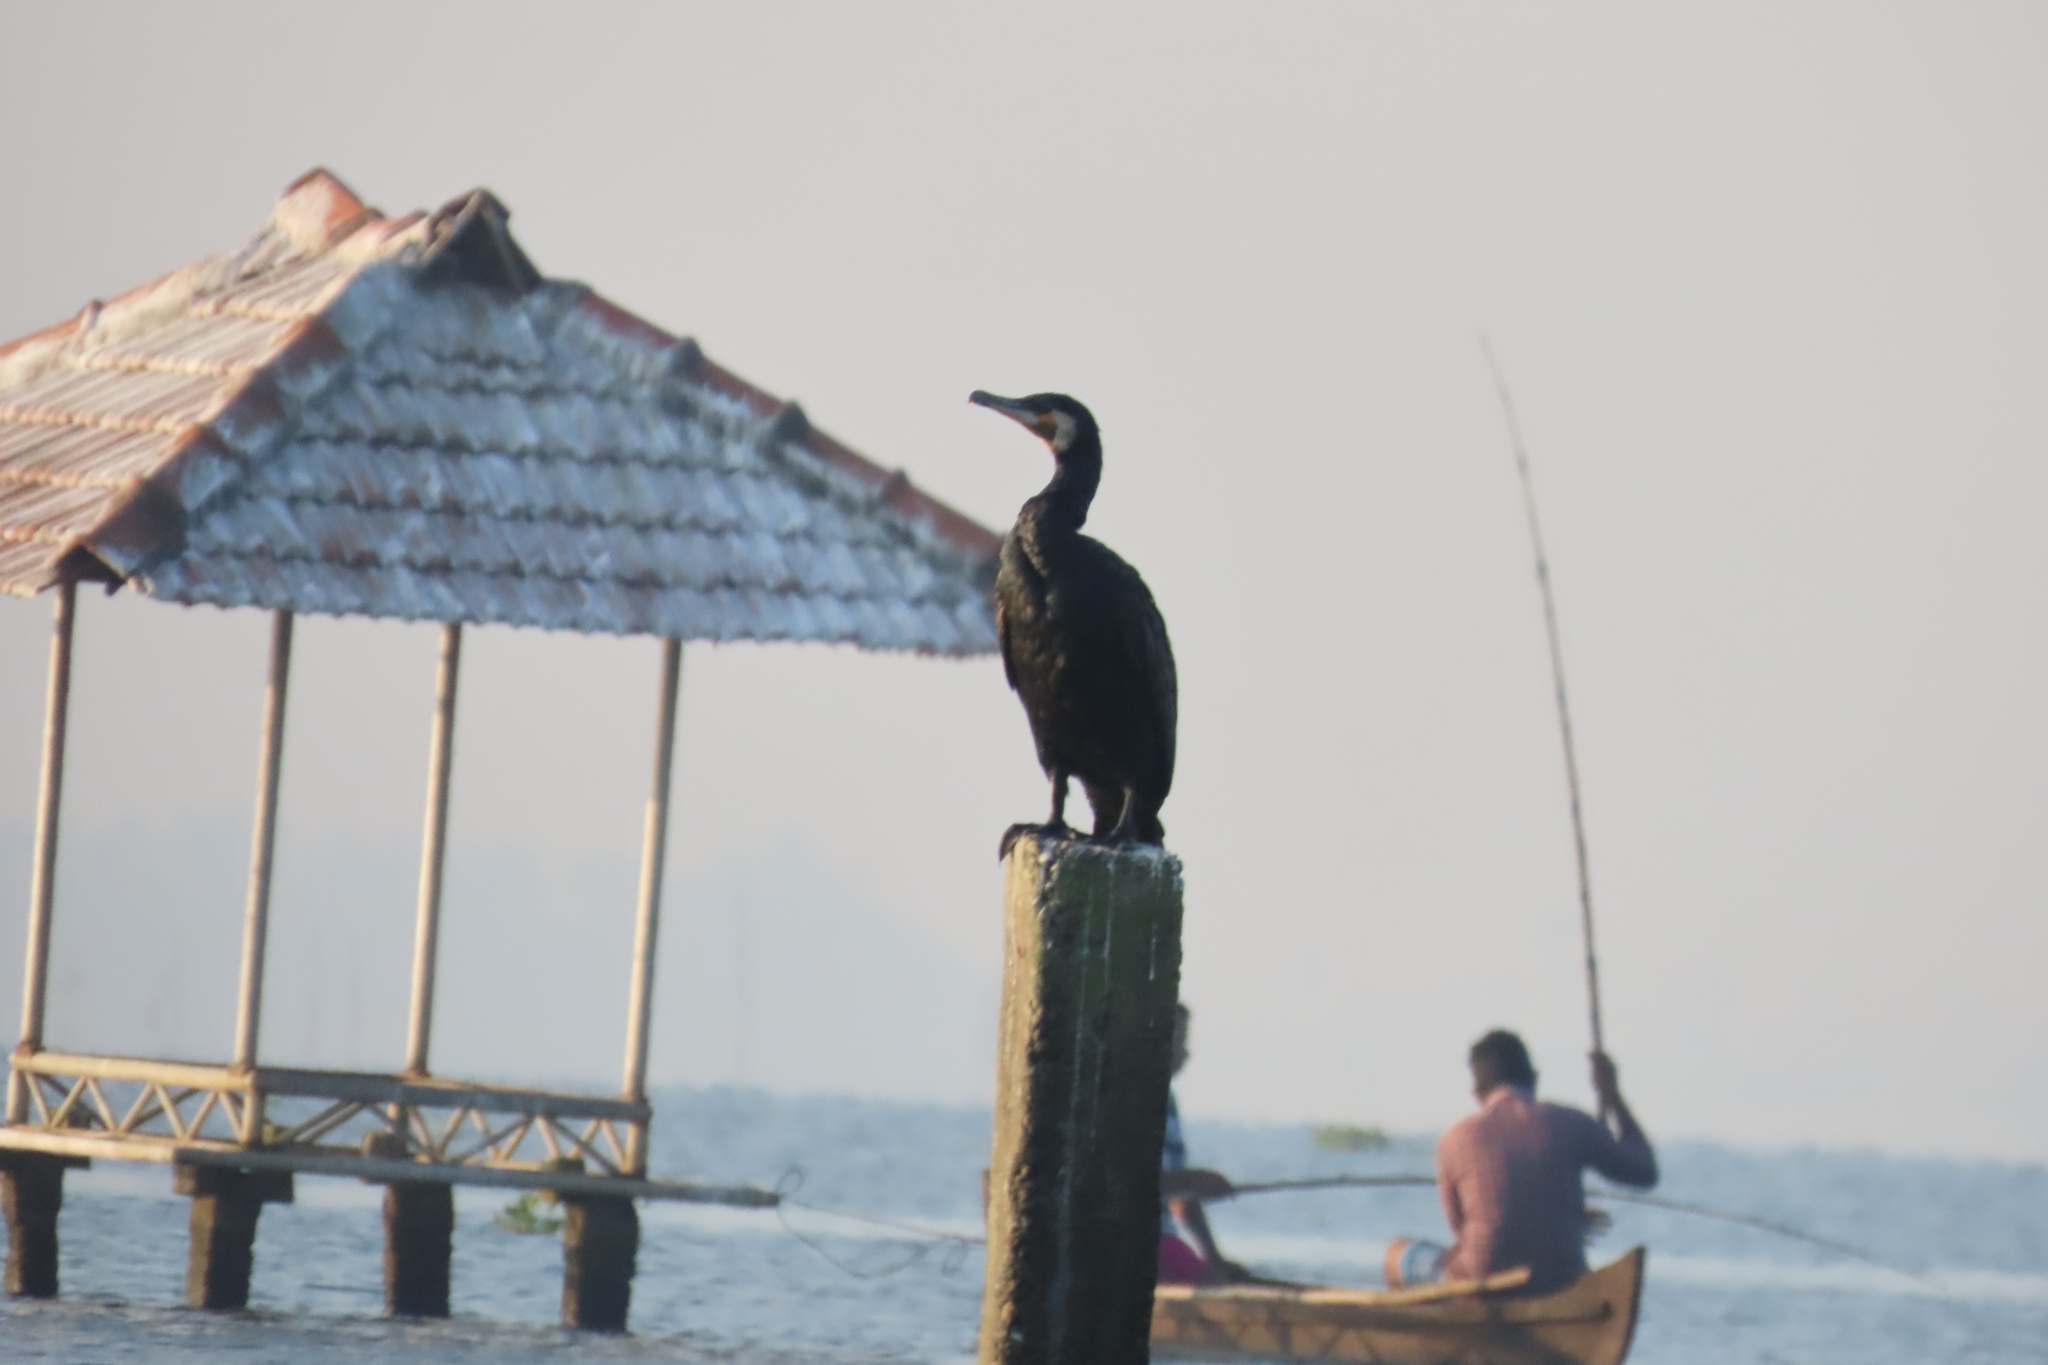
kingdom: Animalia
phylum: Chordata
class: Aves
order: Suliformes
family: Phalacrocoracidae
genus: Phalacrocorax
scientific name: Phalacrocorax carbo
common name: Great cormorant
